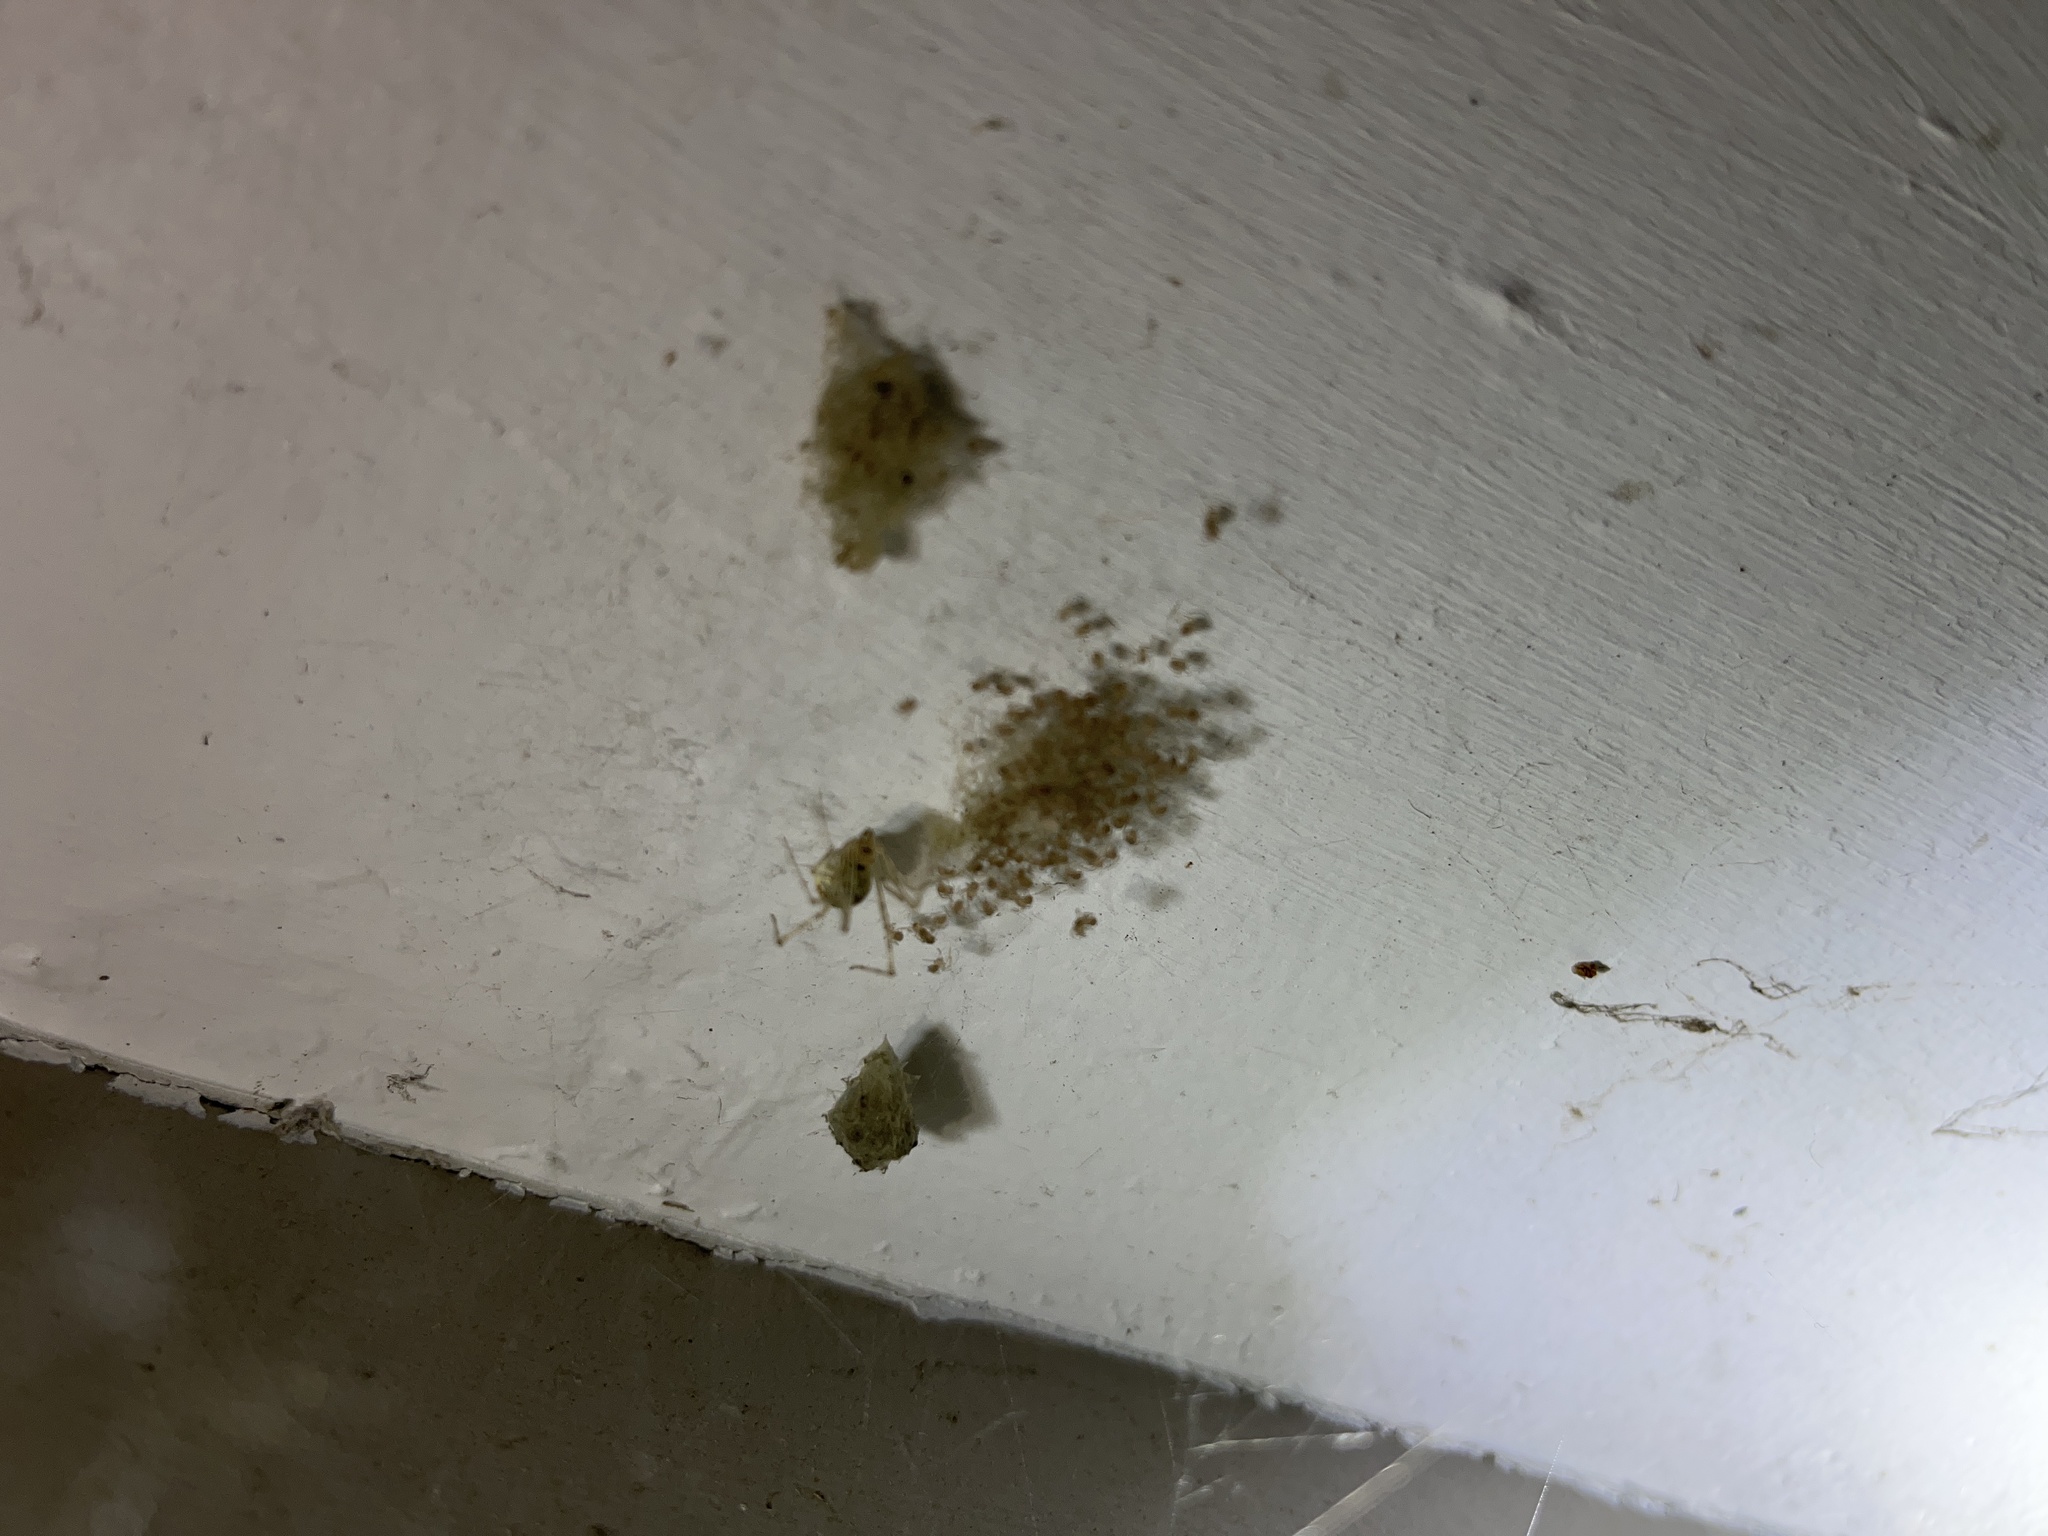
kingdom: Animalia
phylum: Arthropoda
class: Arachnida
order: Araneae
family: Theridiidae
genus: Cryptachaea
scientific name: Cryptachaea gigantipes
